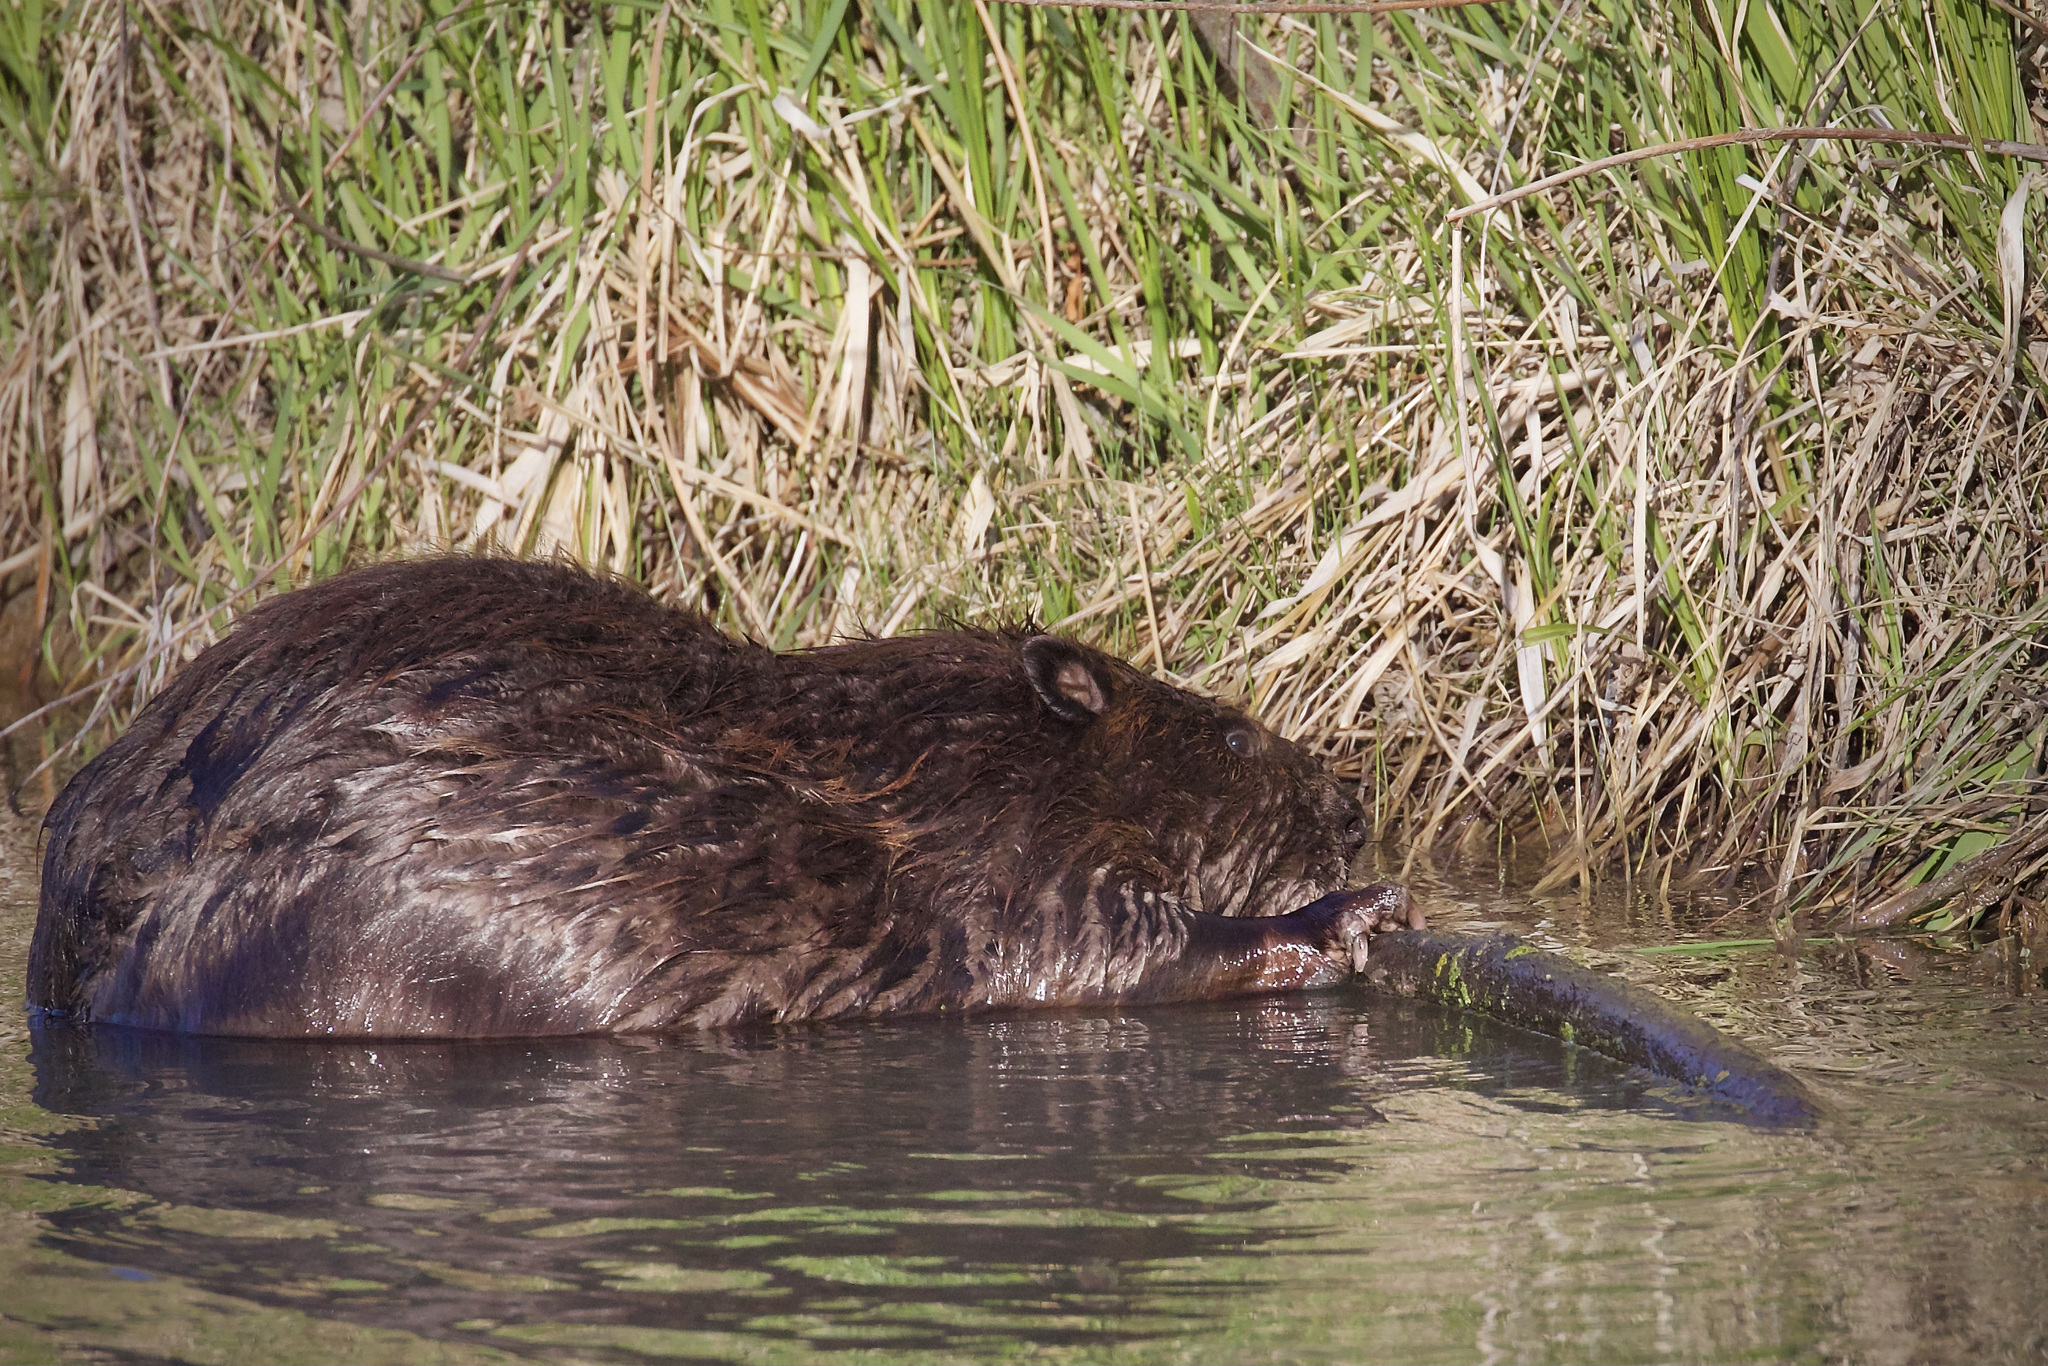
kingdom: Animalia
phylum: Chordata
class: Mammalia
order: Rodentia
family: Castoridae
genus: Castor
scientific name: Castor canadensis
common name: American beaver
